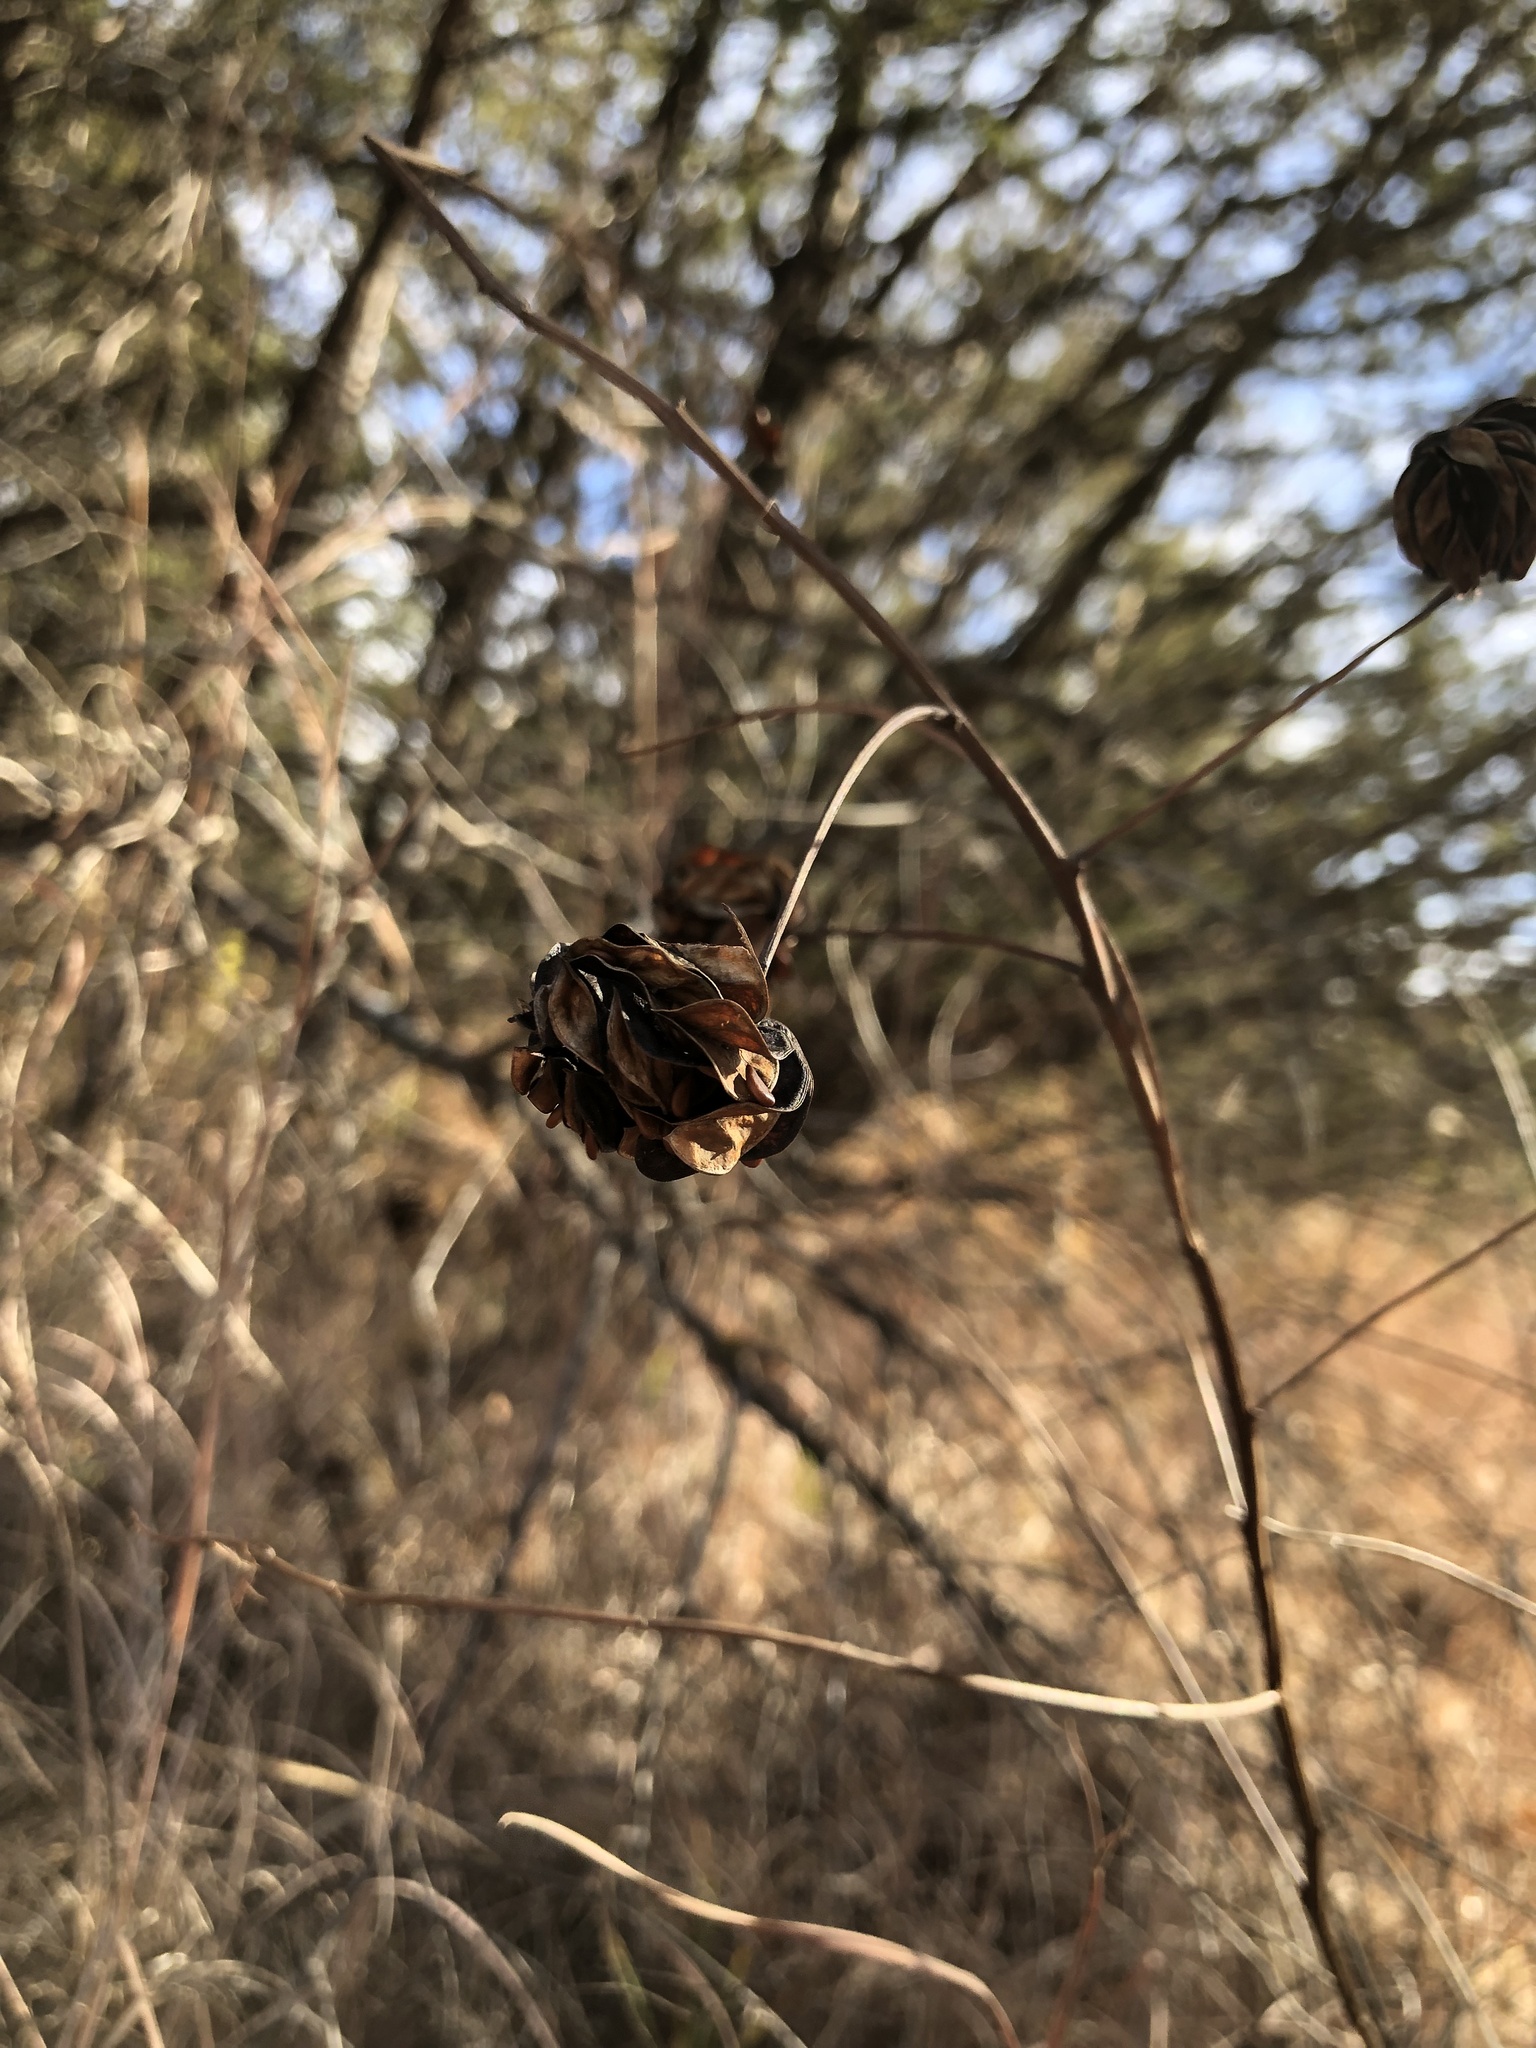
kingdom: Plantae
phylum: Tracheophyta
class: Magnoliopsida
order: Fabales
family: Fabaceae
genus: Desmanthus
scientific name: Desmanthus illinoensis
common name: Illinois bundle-flower
